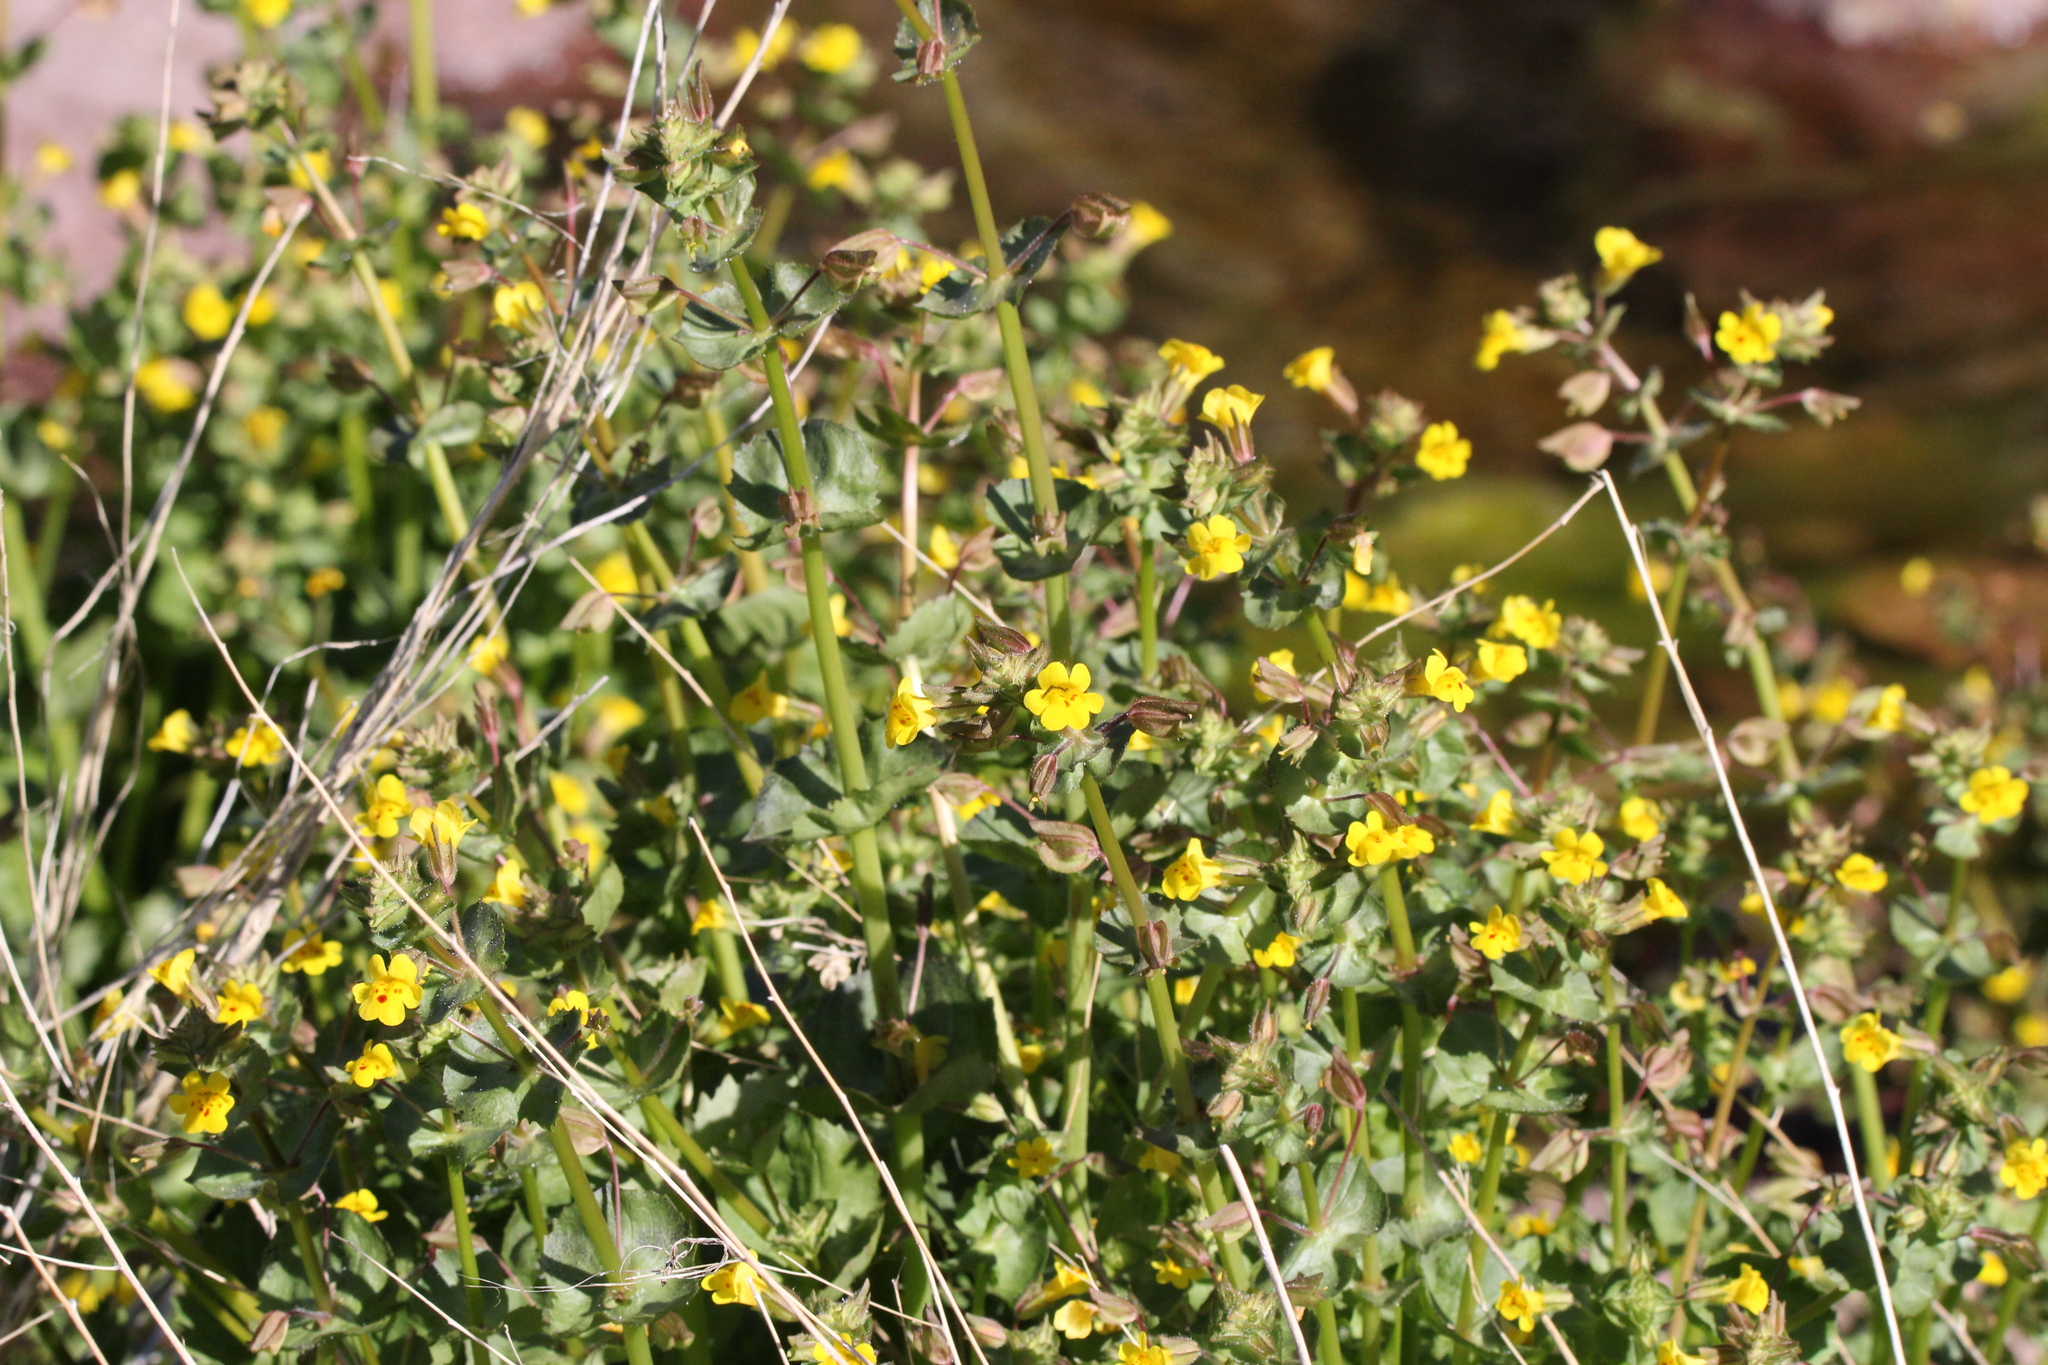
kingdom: Plantae
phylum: Tracheophyta
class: Magnoliopsida
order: Lamiales
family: Phrymaceae
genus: Erythranthe
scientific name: Erythranthe cordata
